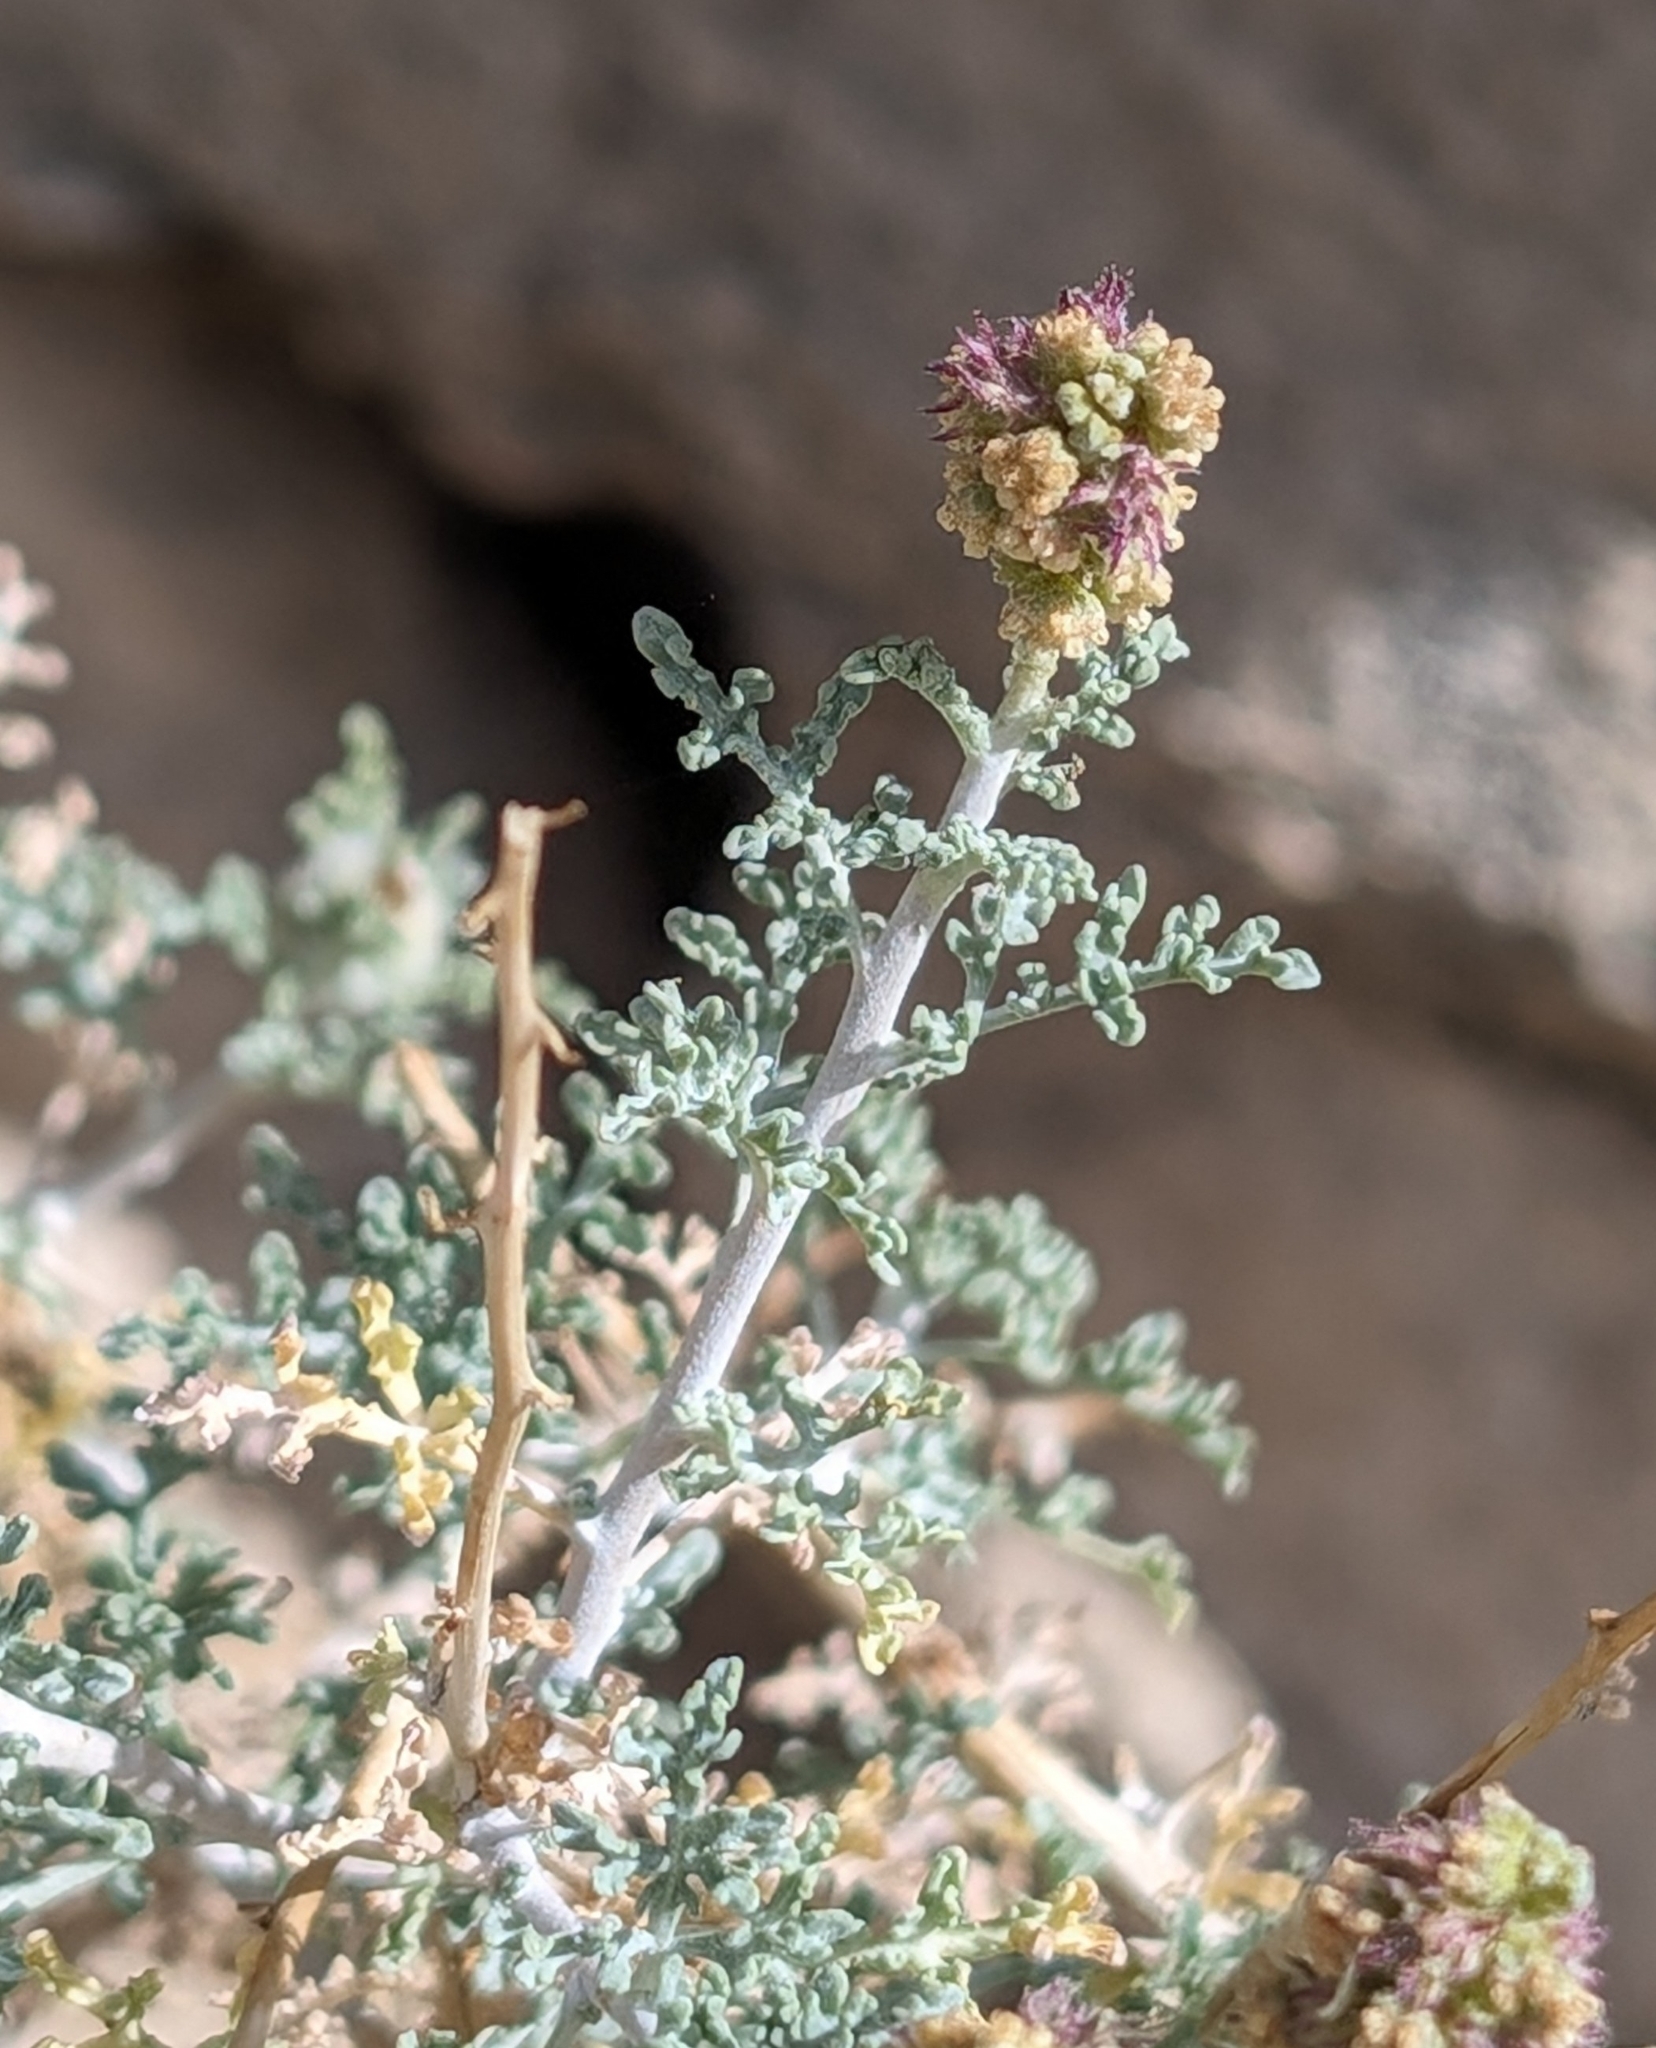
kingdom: Plantae
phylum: Tracheophyta
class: Magnoliopsida
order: Asterales
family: Asteraceae
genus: Ambrosia
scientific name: Ambrosia dumosa
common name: Bur-sage
